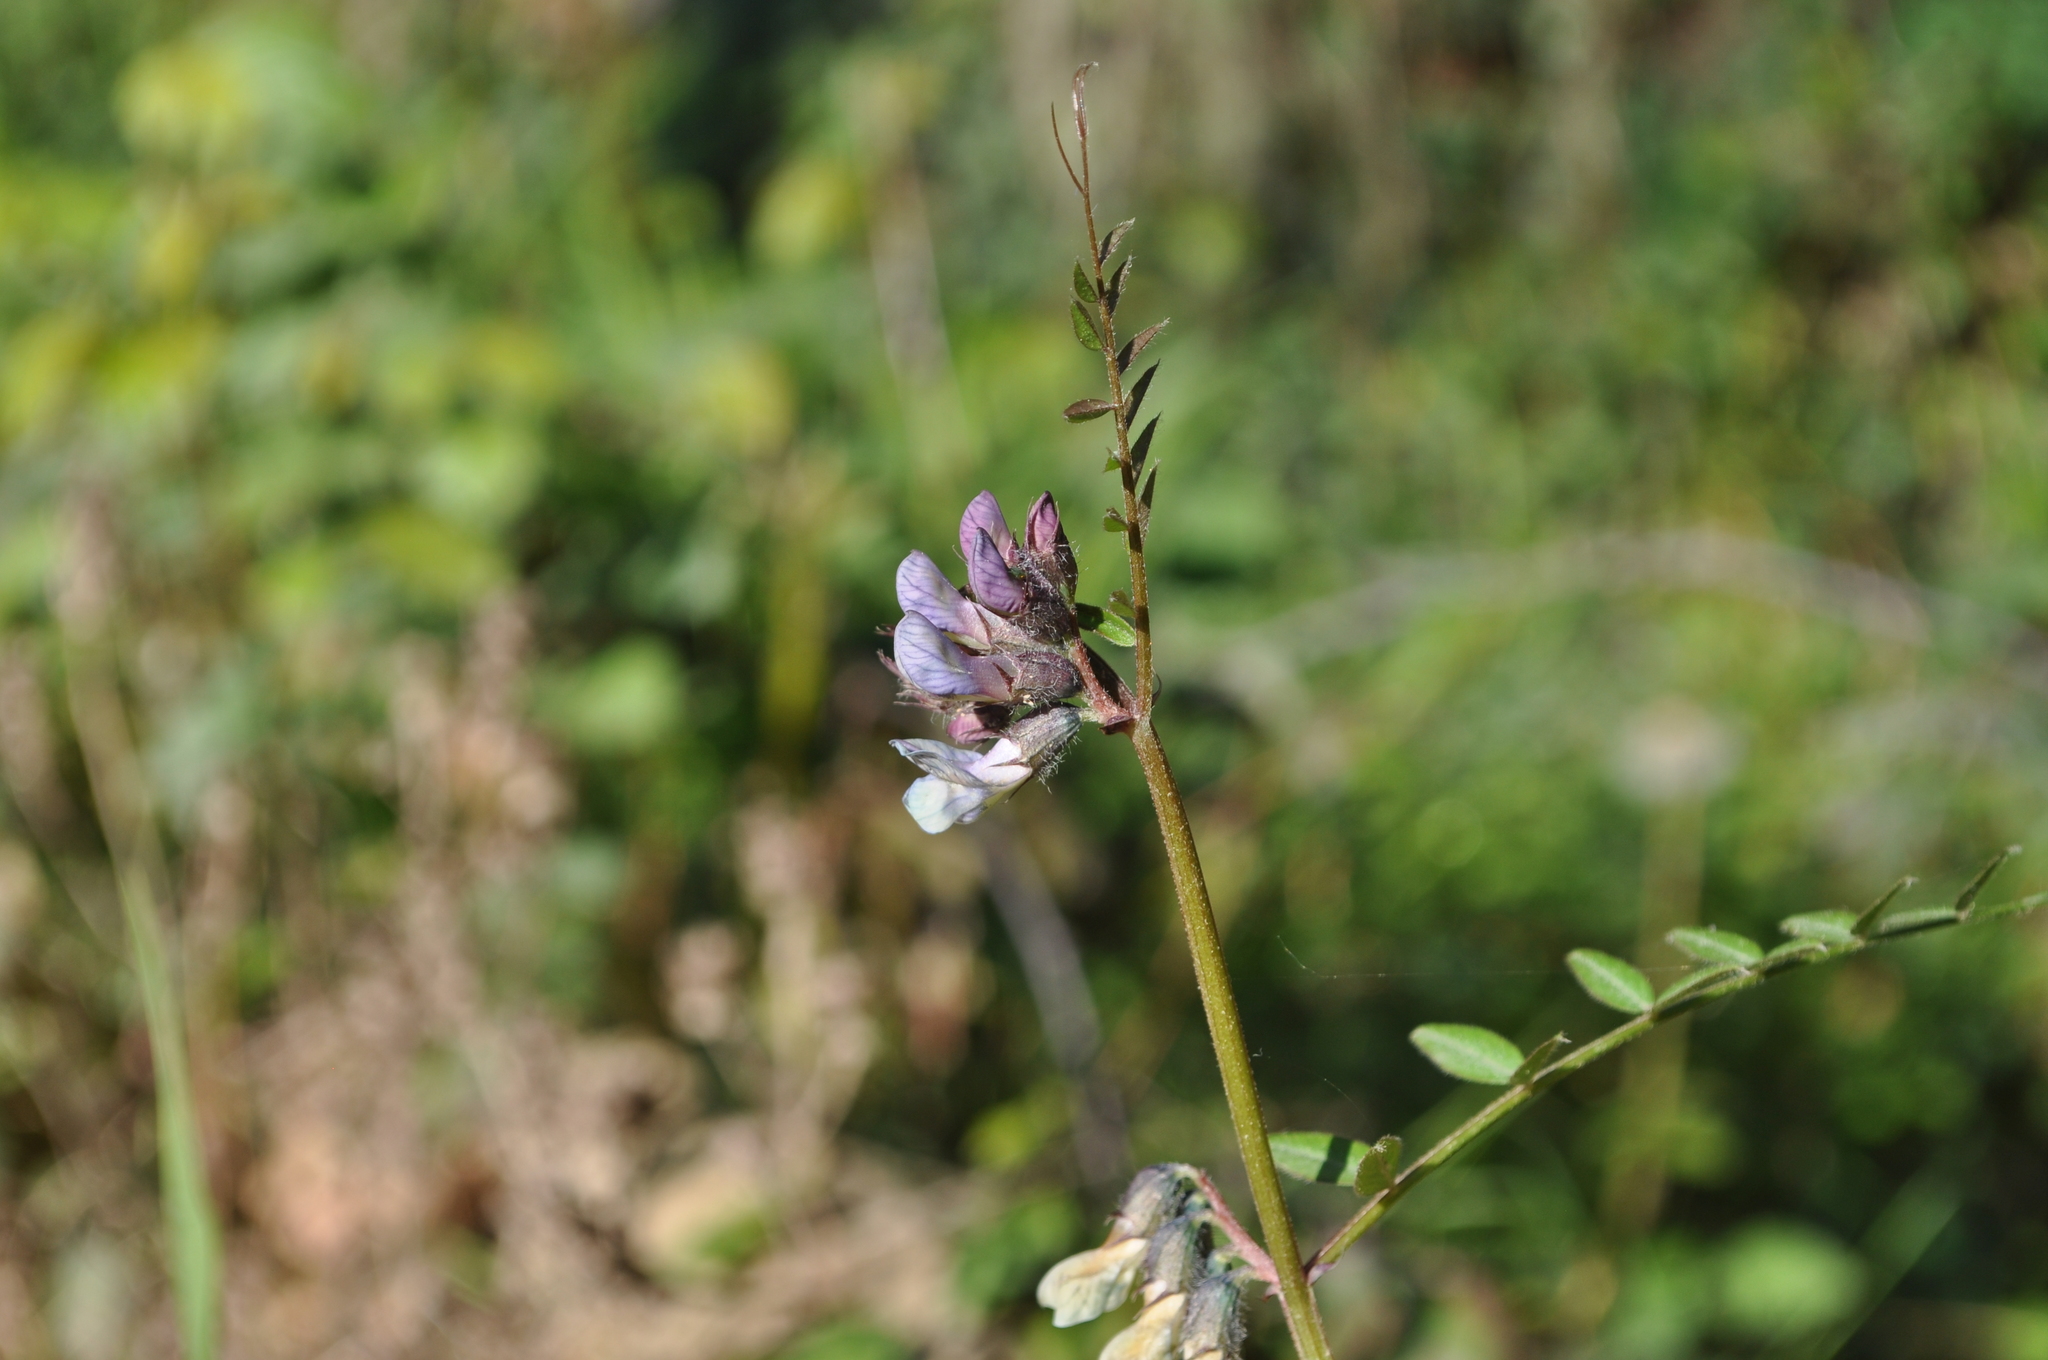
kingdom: Plantae
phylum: Tracheophyta
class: Magnoliopsida
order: Fabales
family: Fabaceae
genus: Vicia
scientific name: Vicia sepium
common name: Bush vetch
